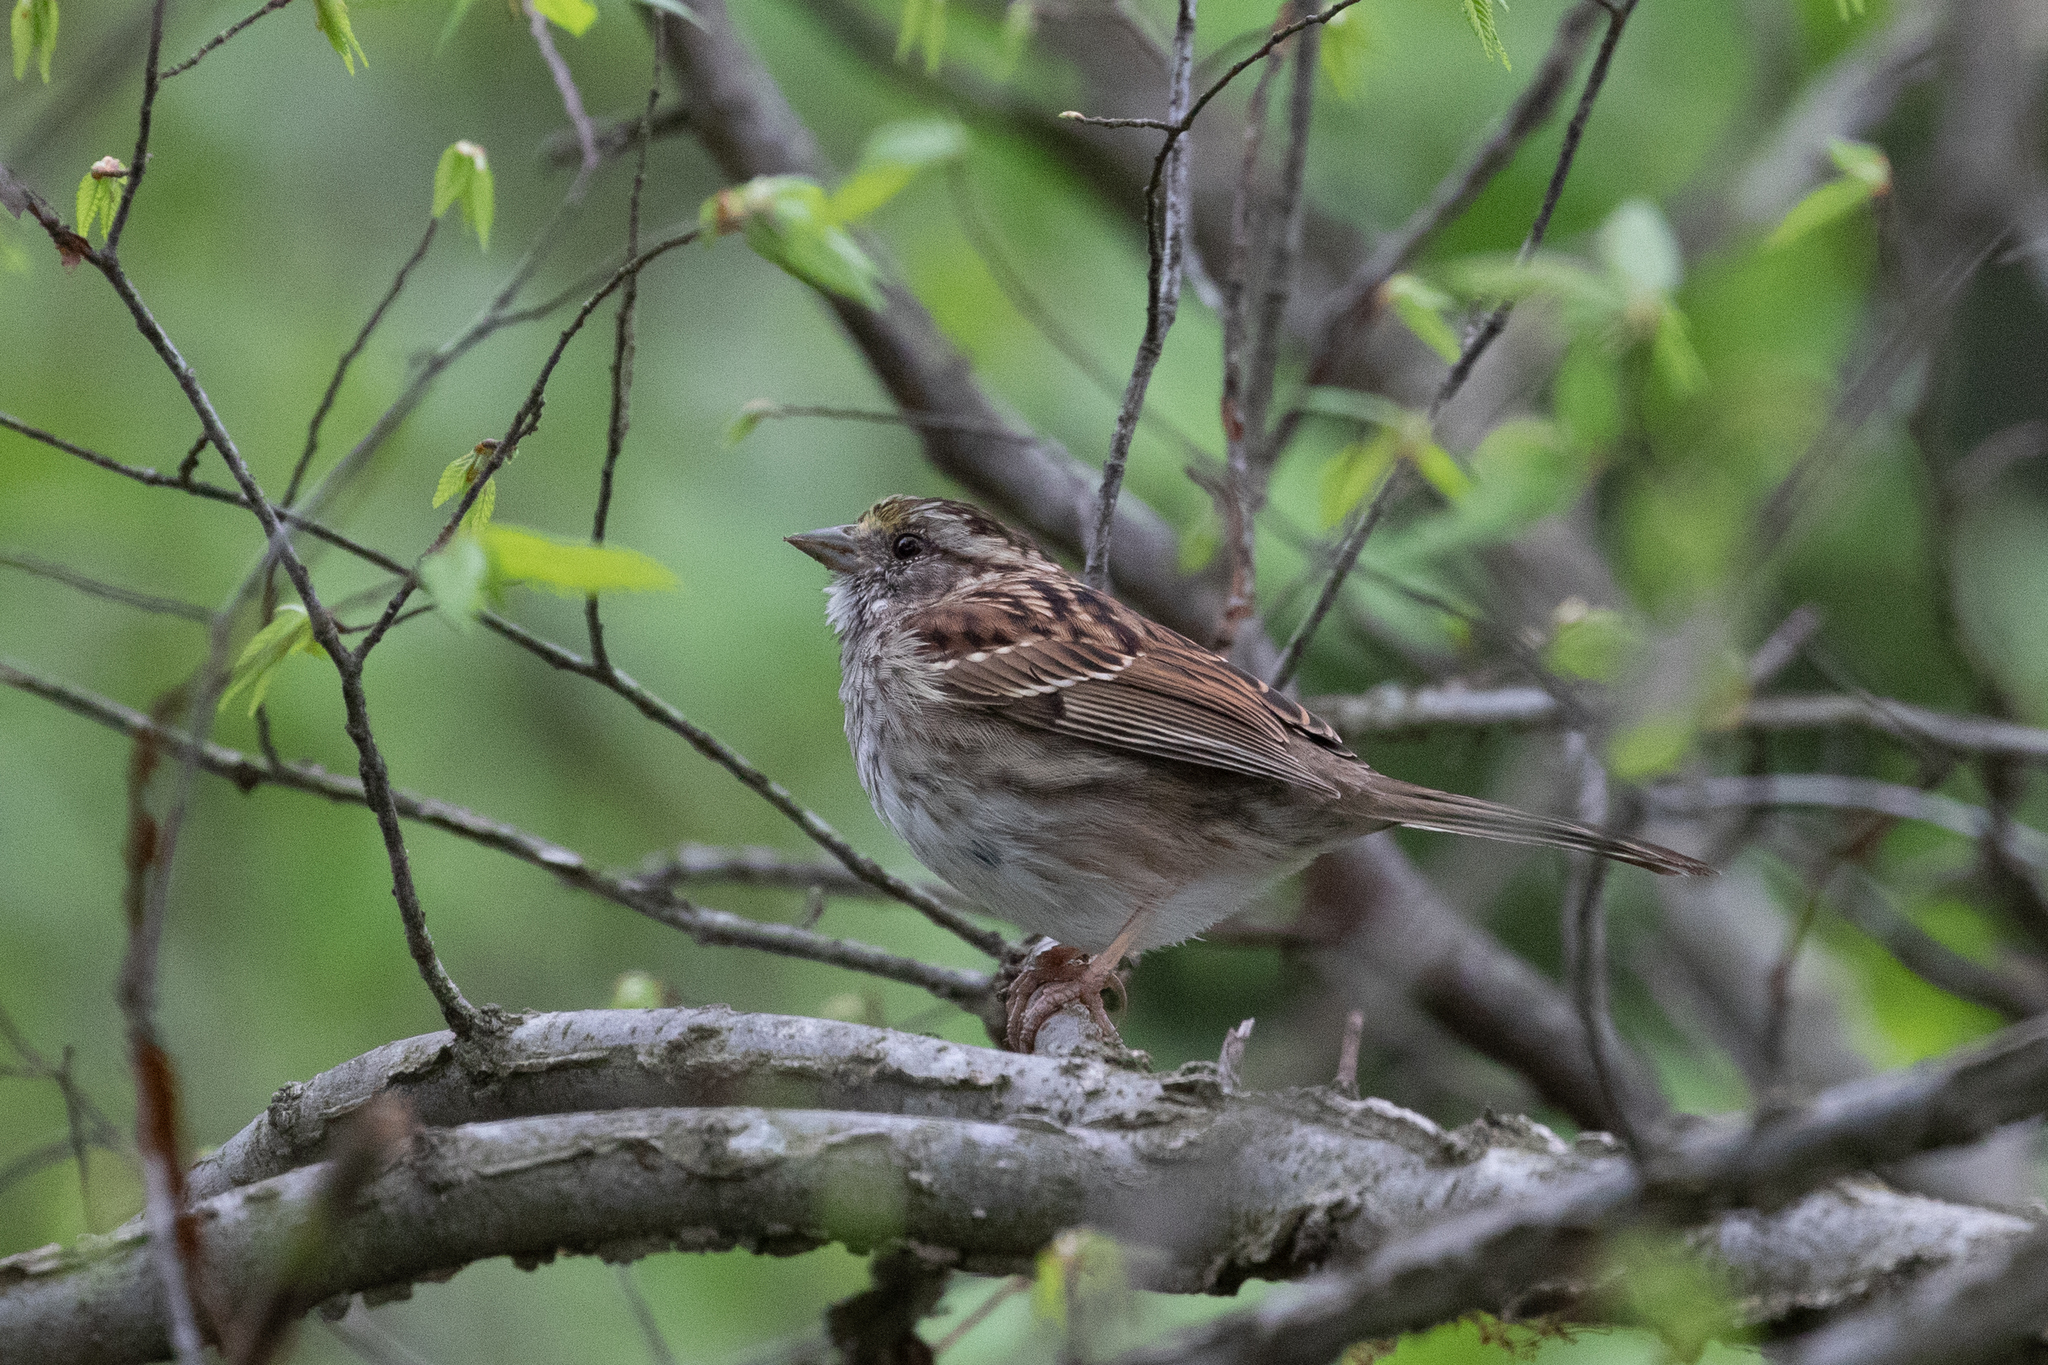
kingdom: Animalia
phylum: Chordata
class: Aves
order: Passeriformes
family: Passerellidae
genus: Zonotrichia
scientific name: Zonotrichia albicollis
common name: White-throated sparrow
